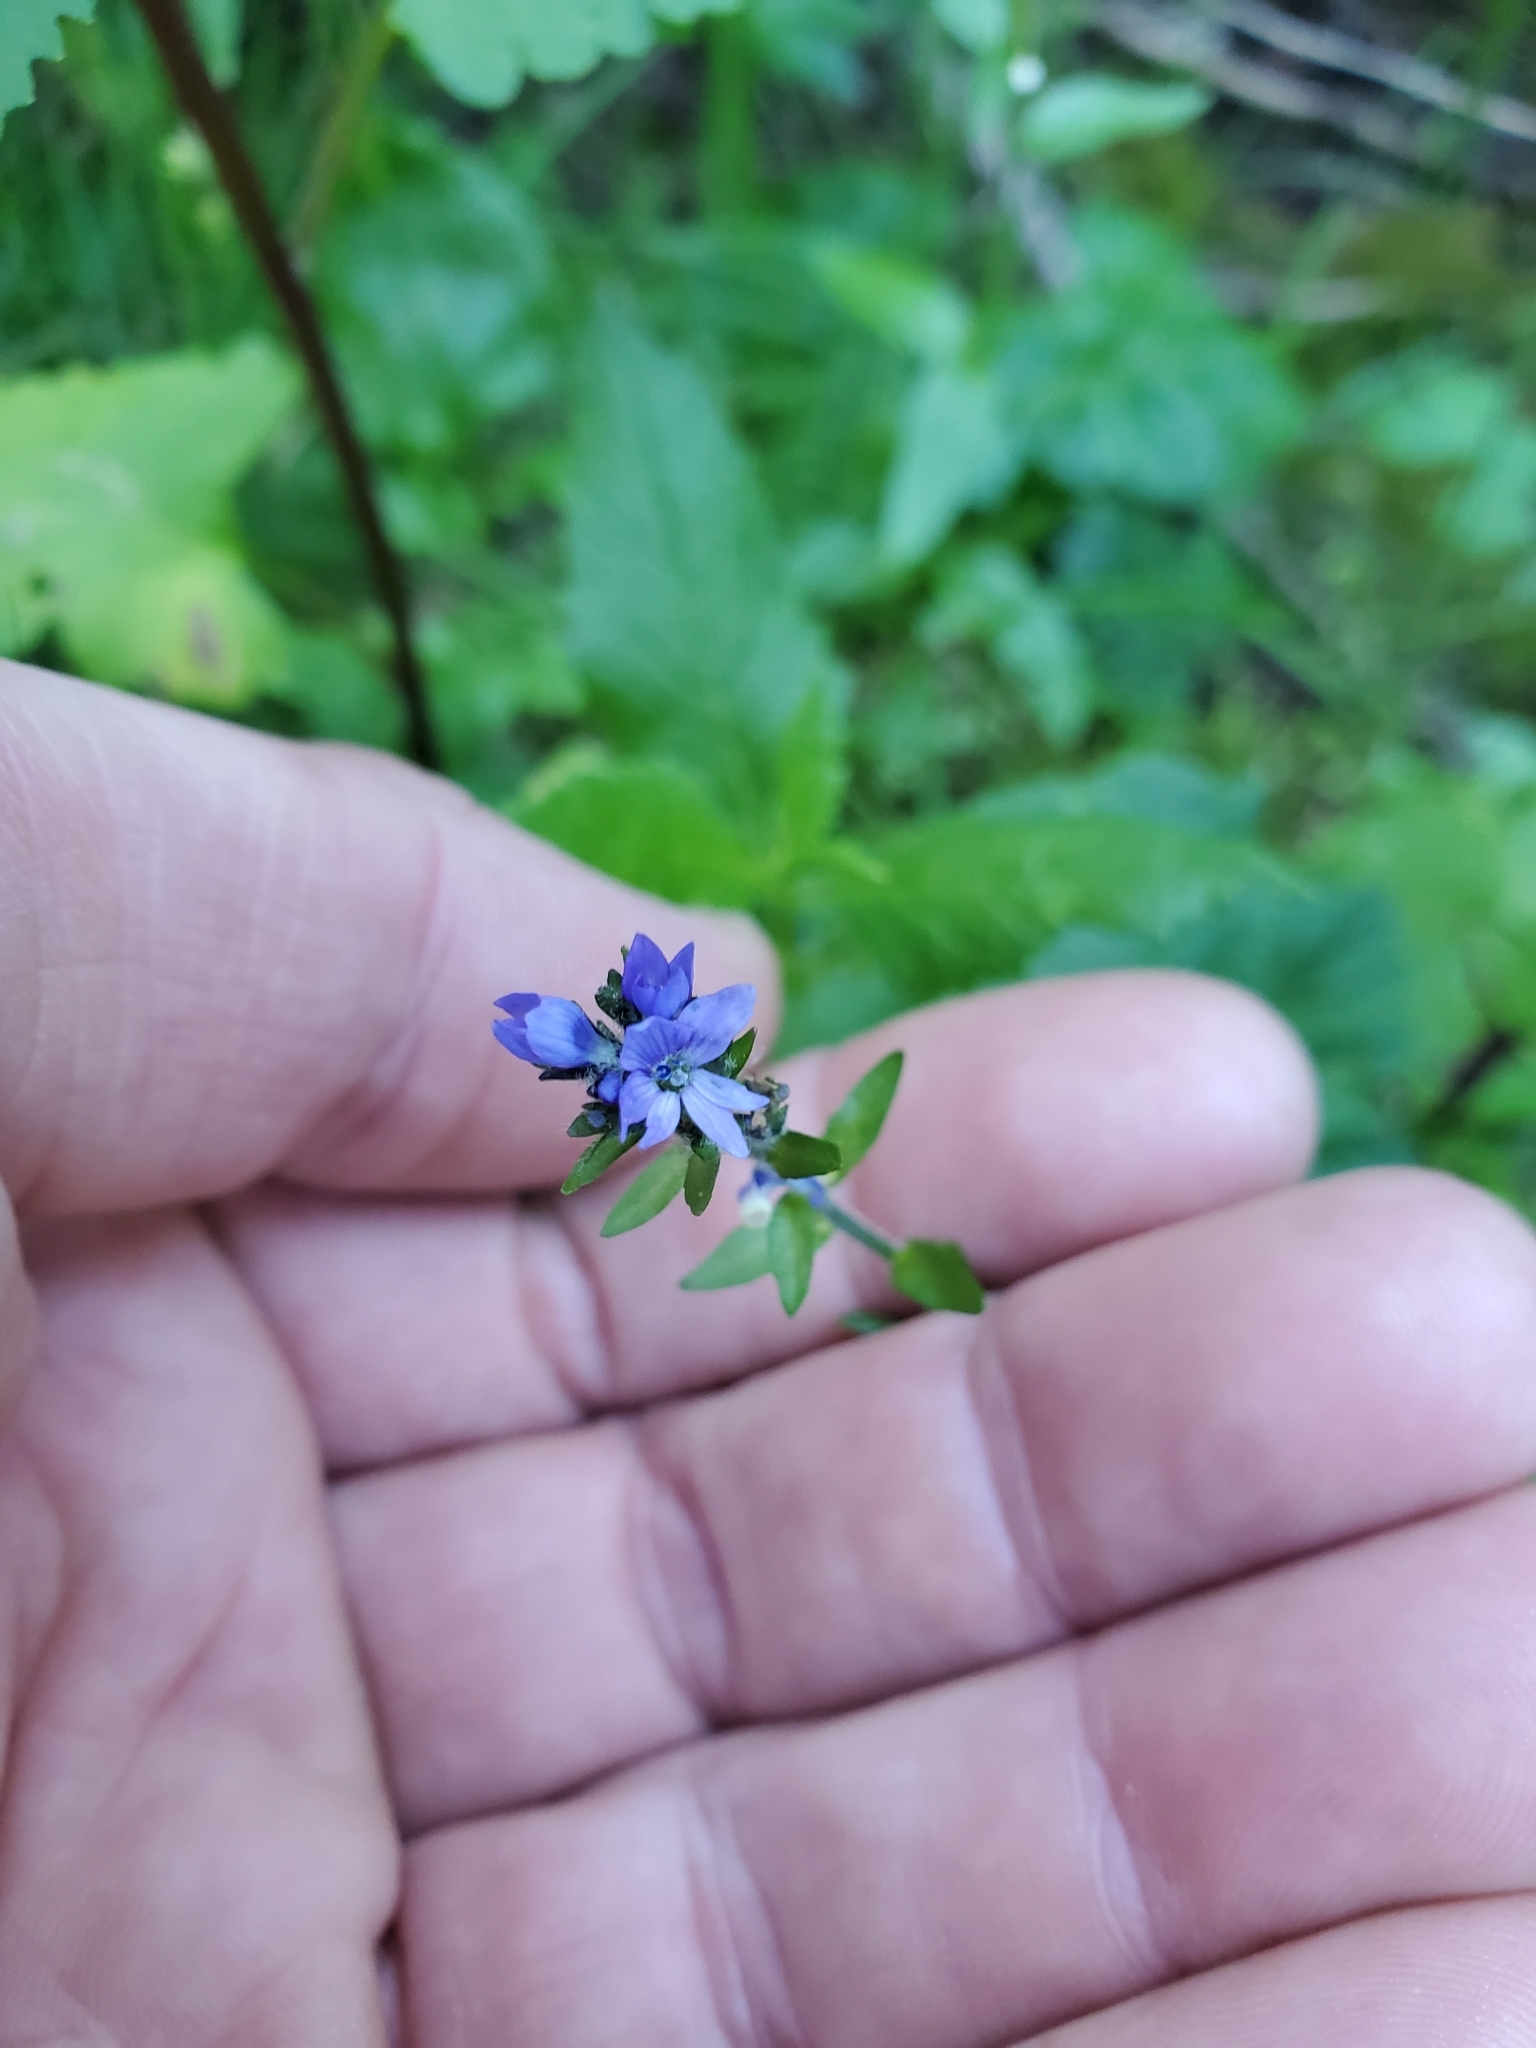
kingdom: Plantae
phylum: Tracheophyta
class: Magnoliopsida
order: Lamiales
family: Plantaginaceae
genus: Veronica
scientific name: Veronica wormskjoldii
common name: American alpine speedwell
